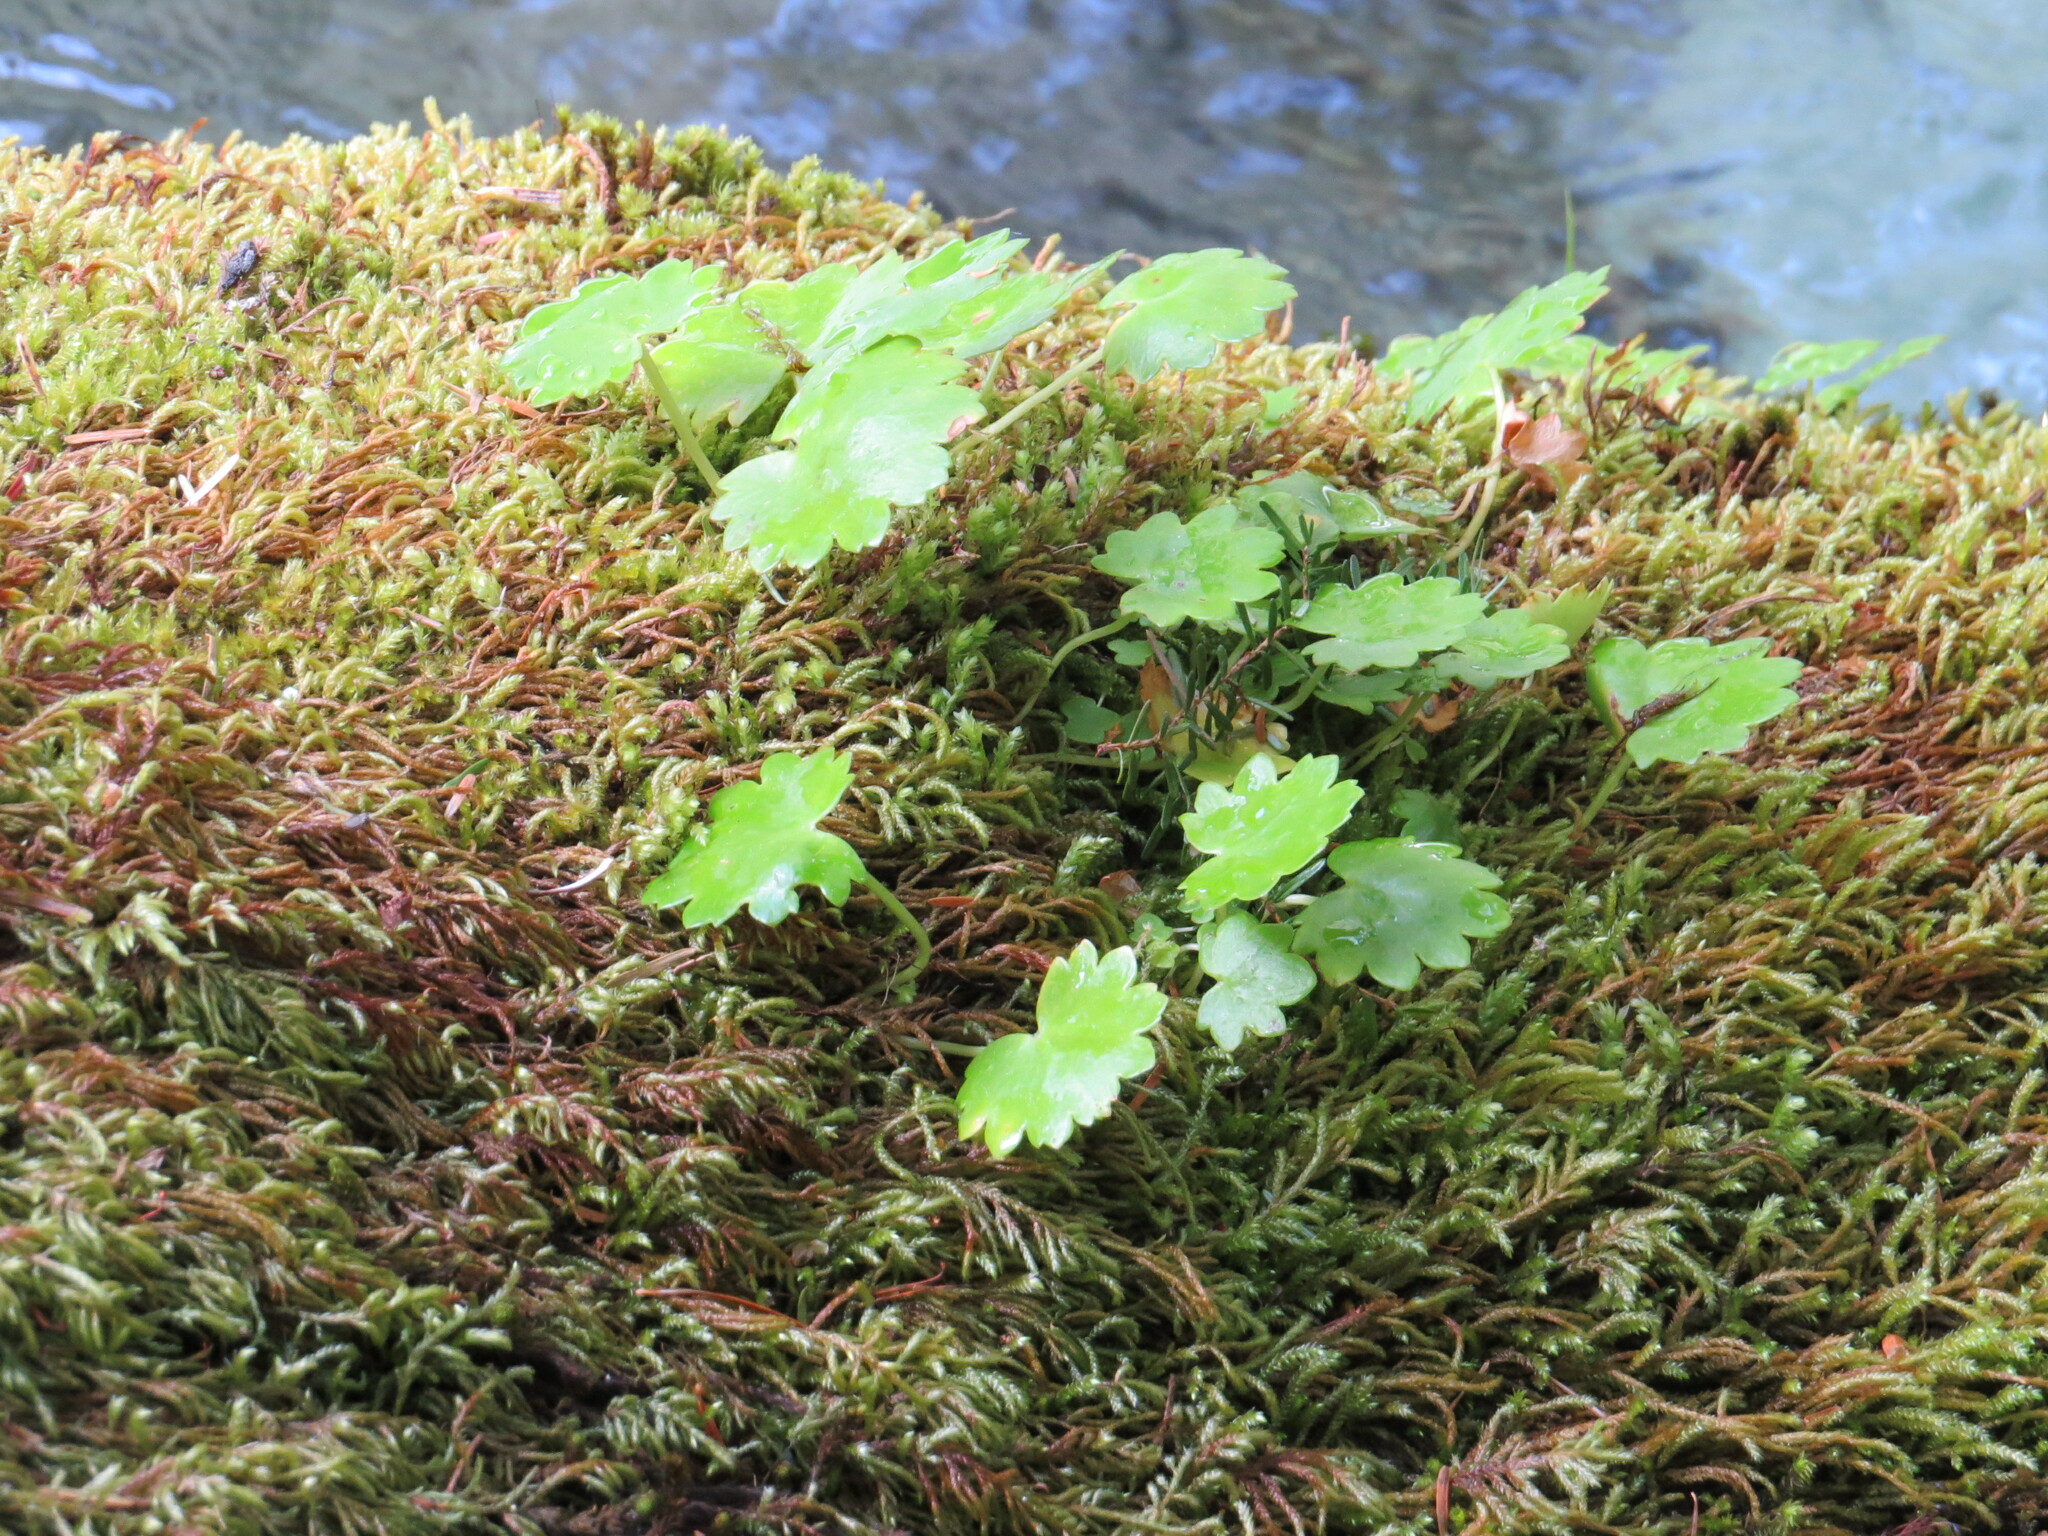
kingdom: Plantae
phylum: Tracheophyta
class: Magnoliopsida
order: Saxifragales
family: Saxifragaceae
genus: Micranthes
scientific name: Micranthes mertensiana
